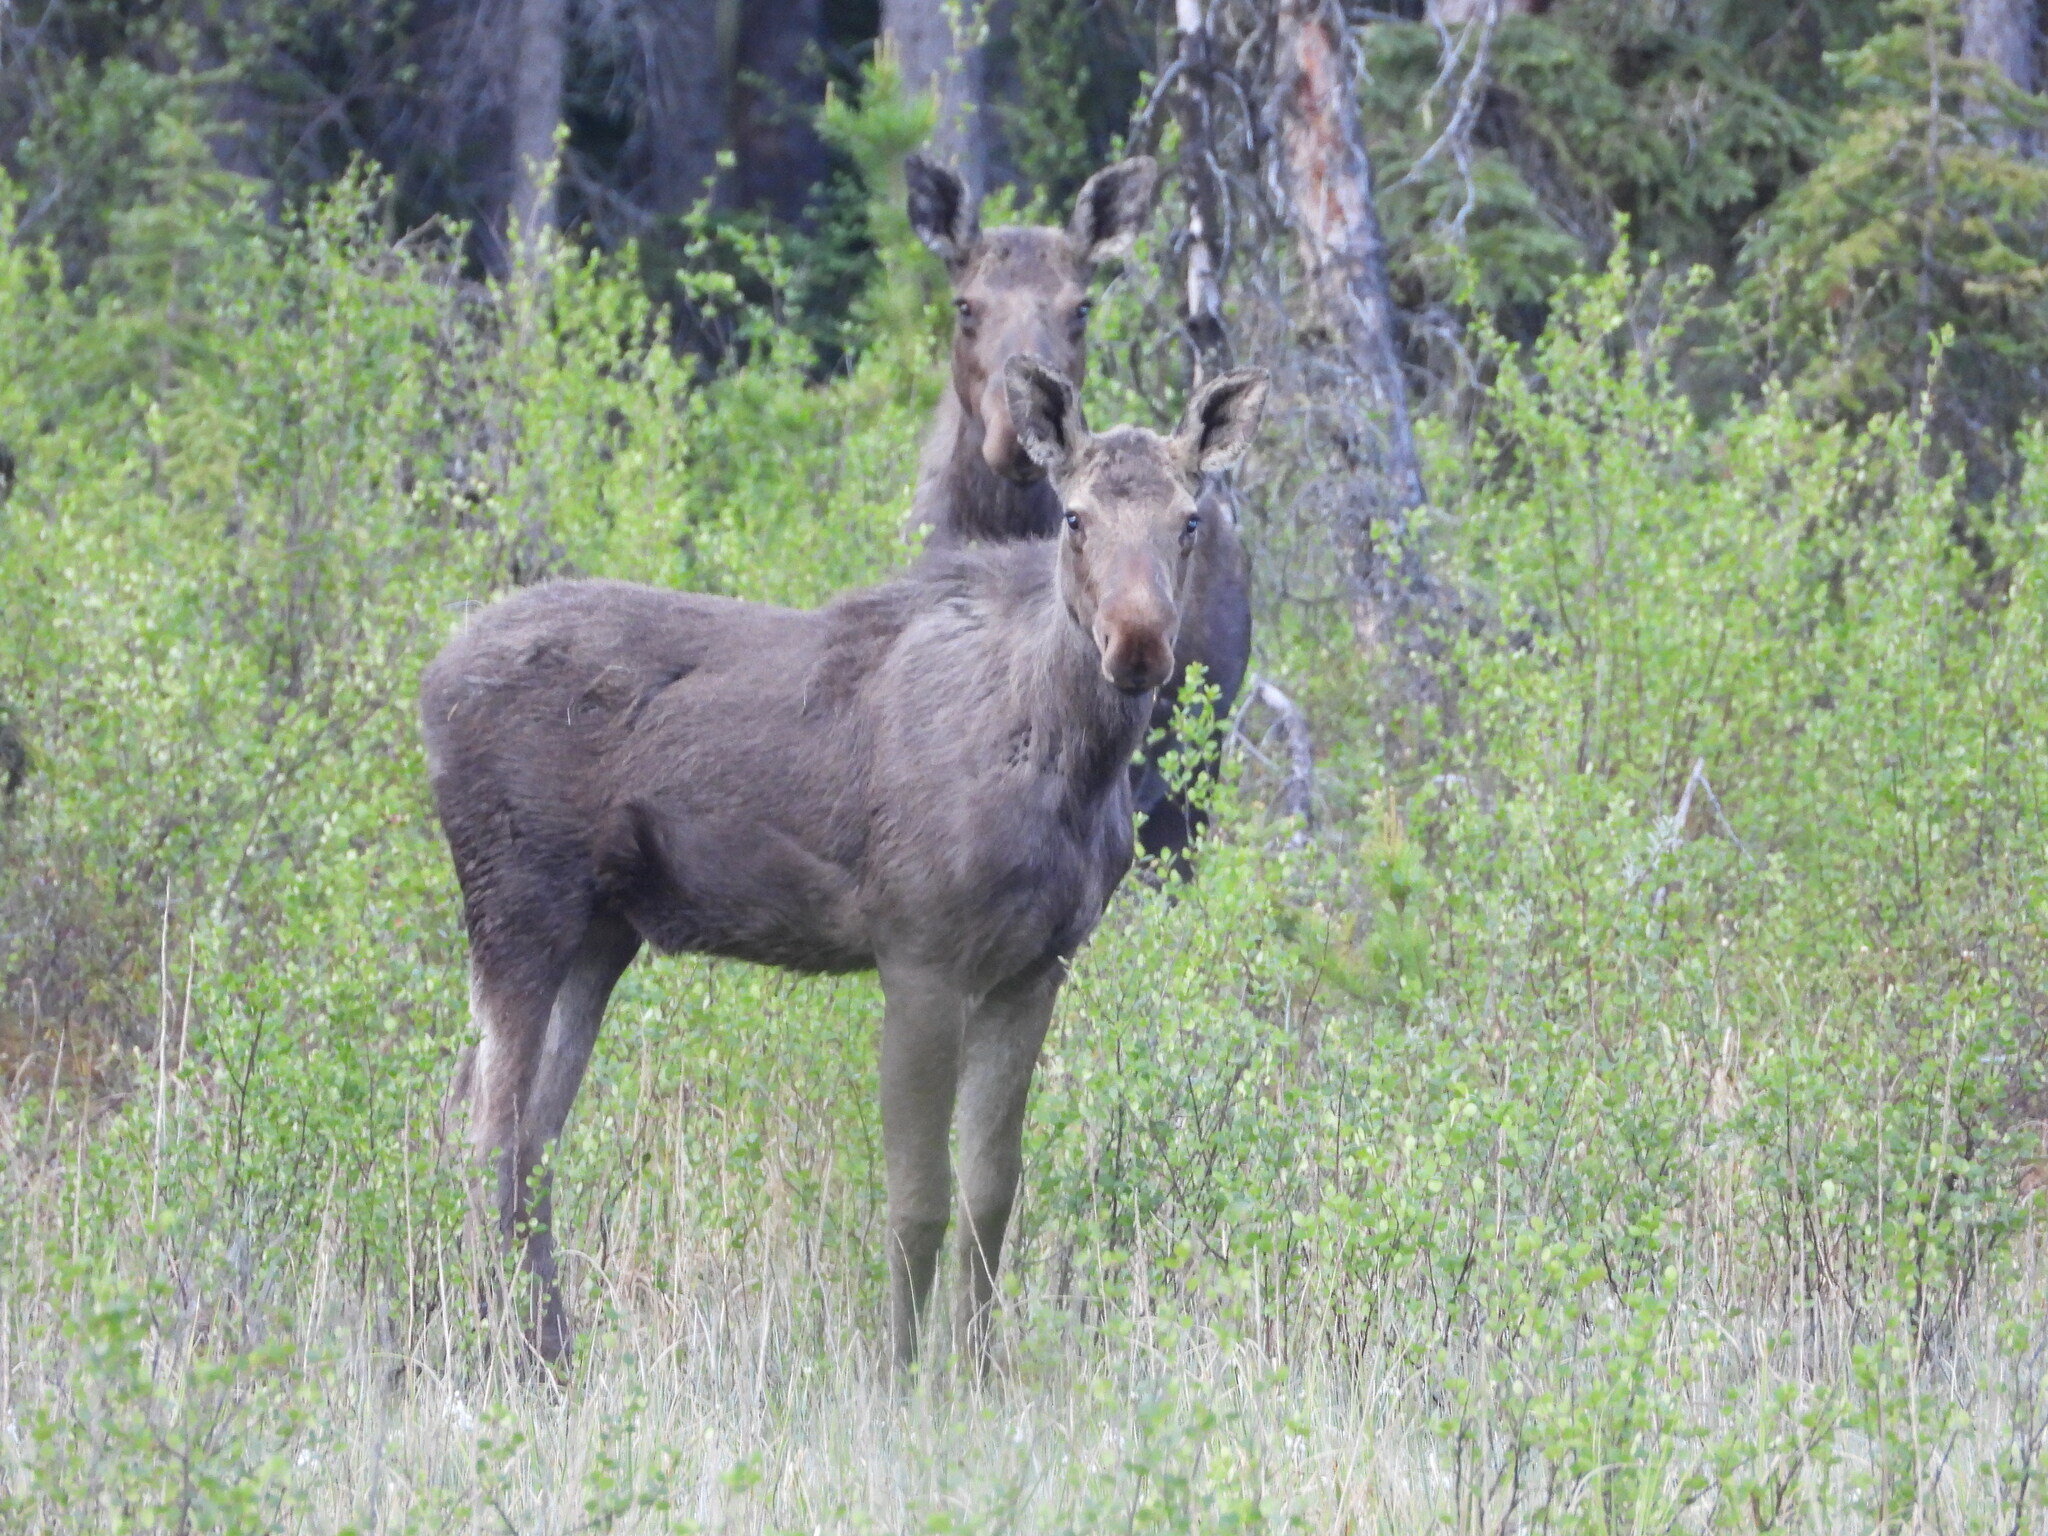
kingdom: Animalia
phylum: Chordata
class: Mammalia
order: Artiodactyla
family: Cervidae
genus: Alces
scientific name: Alces alces
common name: Moose
